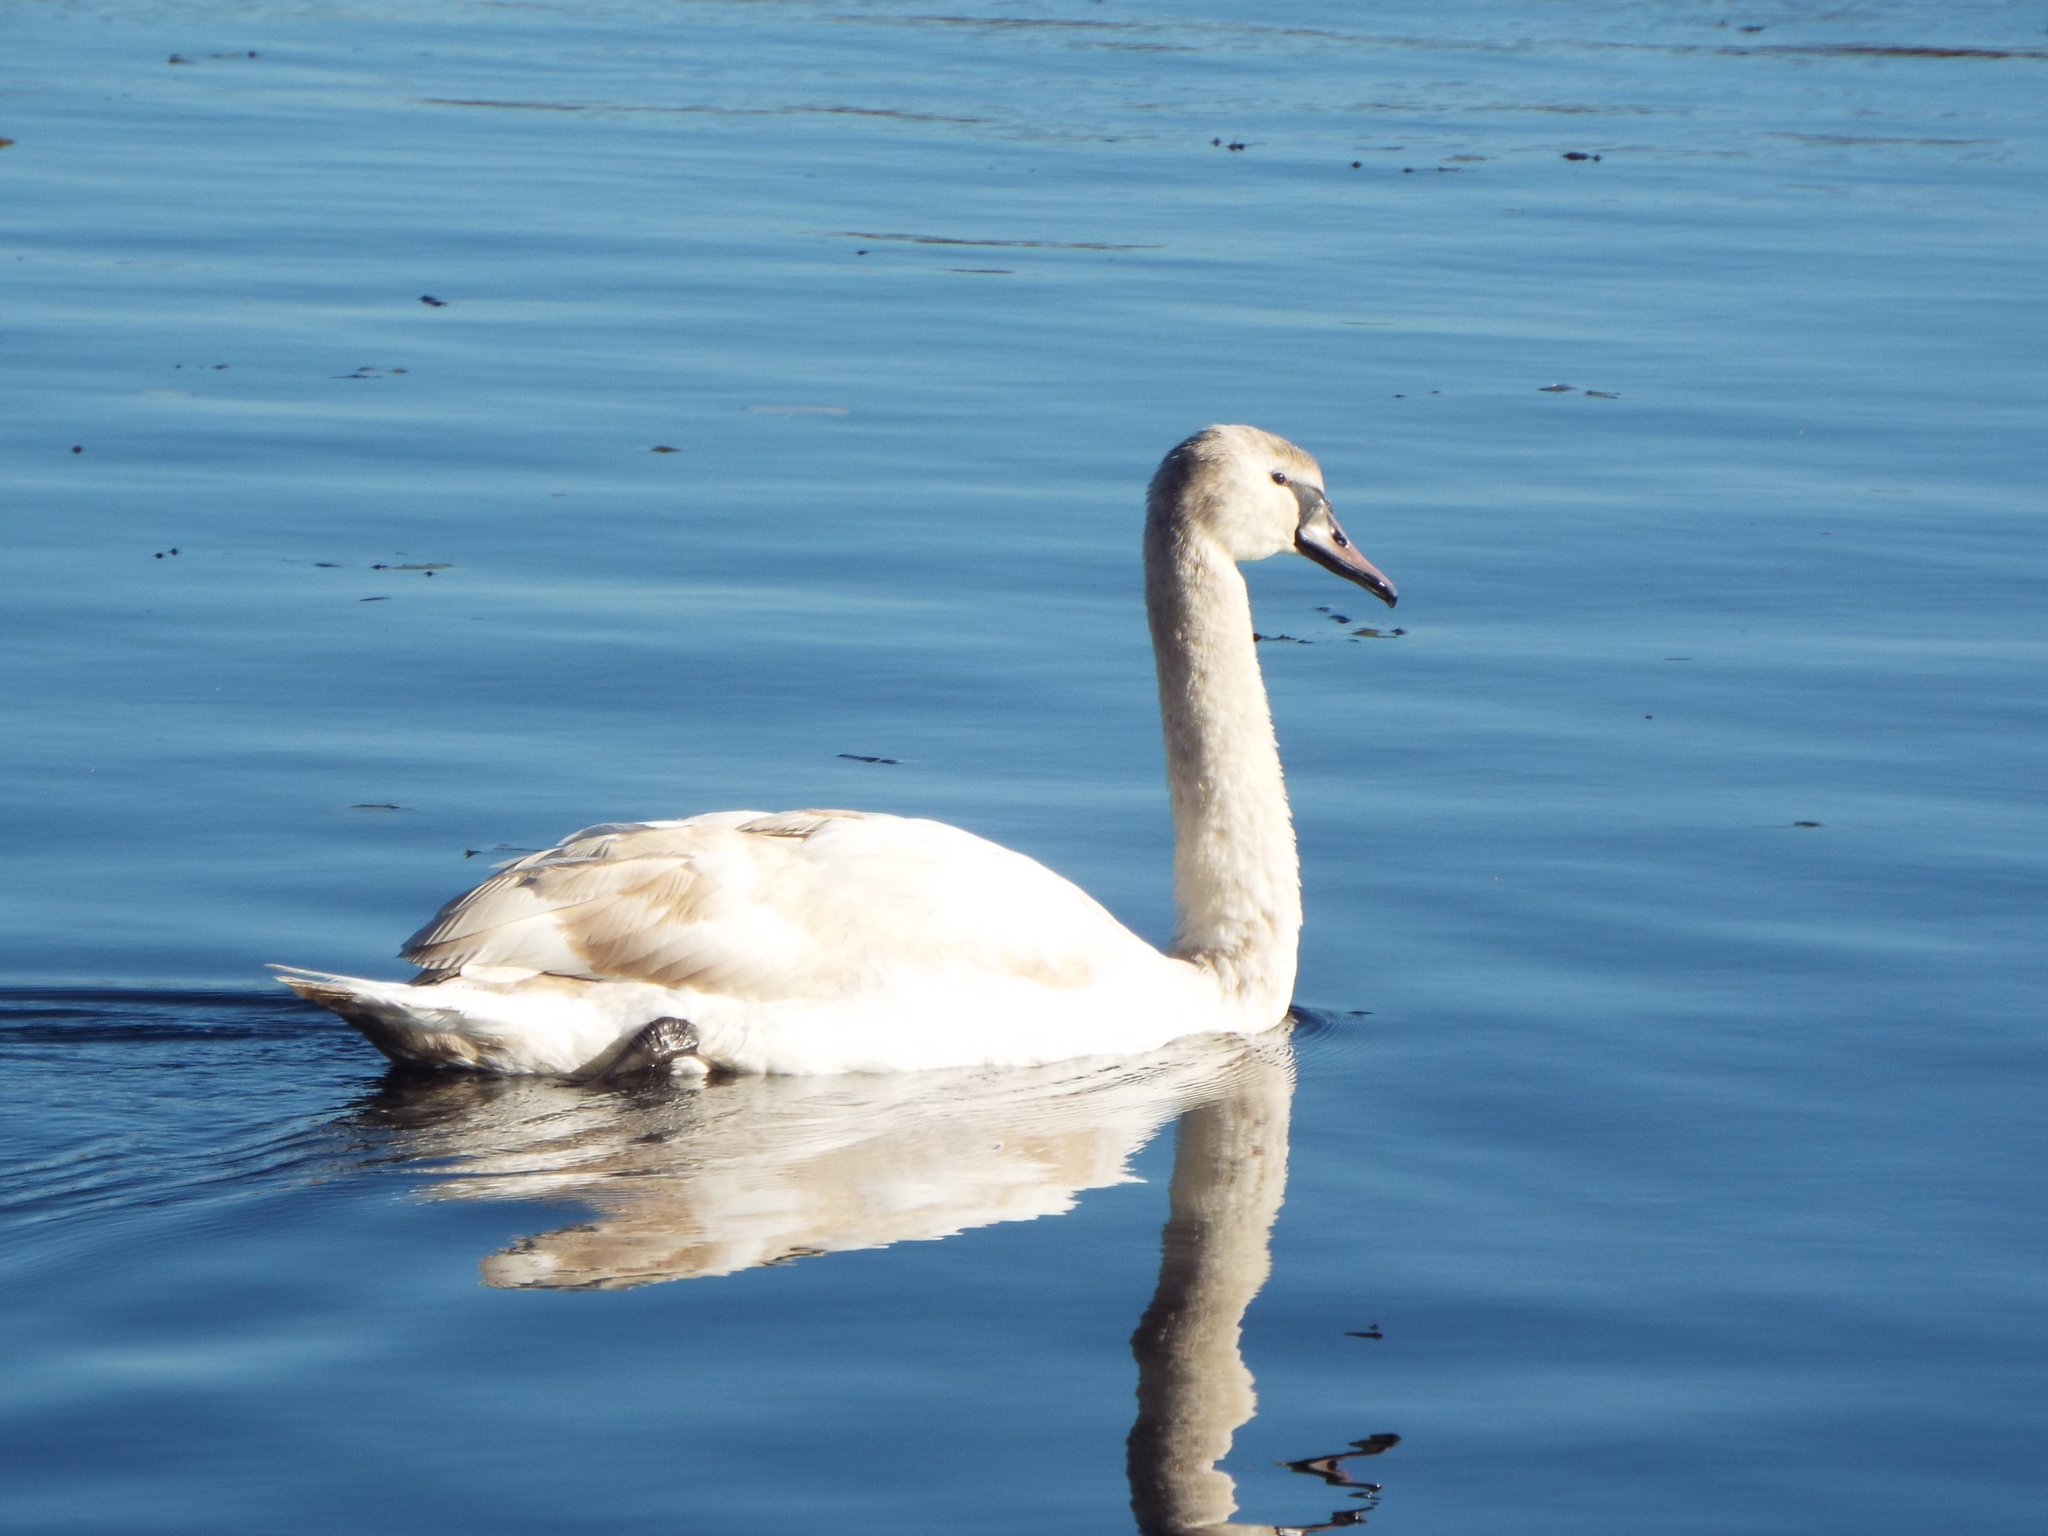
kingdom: Animalia
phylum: Chordata
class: Aves
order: Anseriformes
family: Anatidae
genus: Cygnus
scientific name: Cygnus olor
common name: Mute swan
